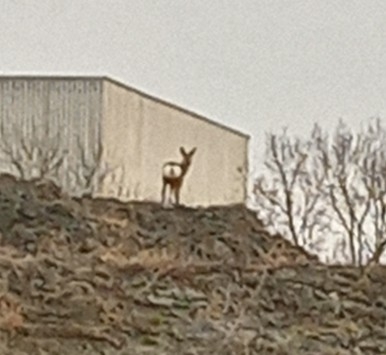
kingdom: Animalia
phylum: Chordata
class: Mammalia
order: Artiodactyla
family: Cervidae
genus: Capreolus
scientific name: Capreolus capreolus
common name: Western roe deer
